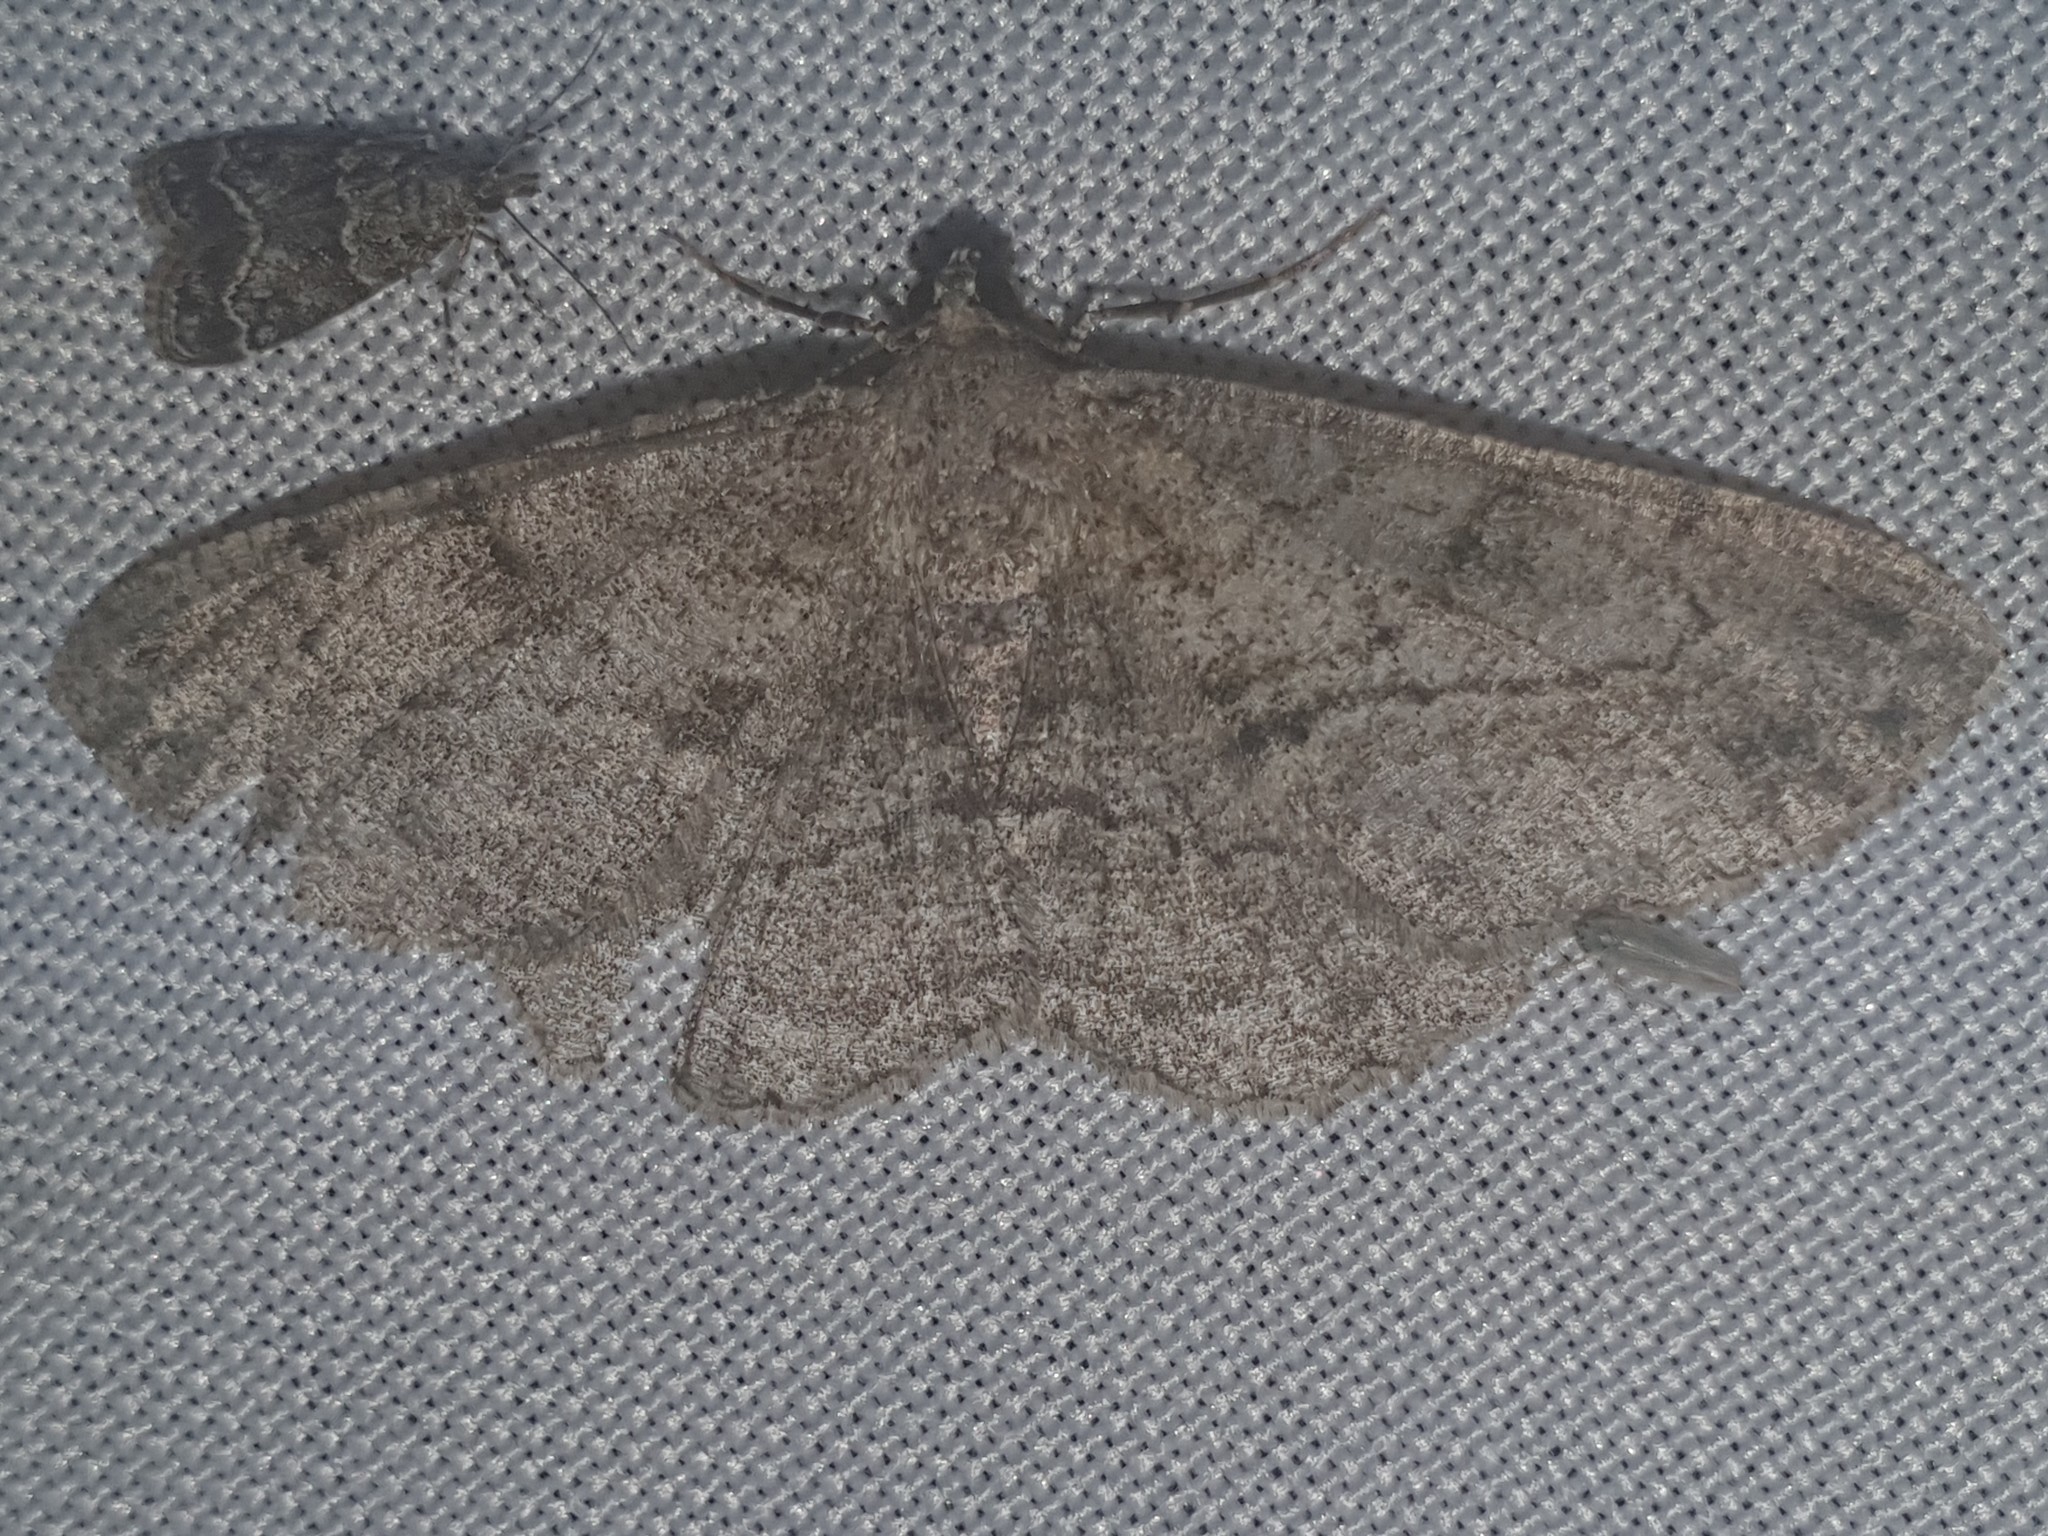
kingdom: Animalia
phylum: Arthropoda
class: Insecta
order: Lepidoptera
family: Geometridae
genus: Peribatodes
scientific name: Peribatodes rhomboidaria
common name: Willow beauty
